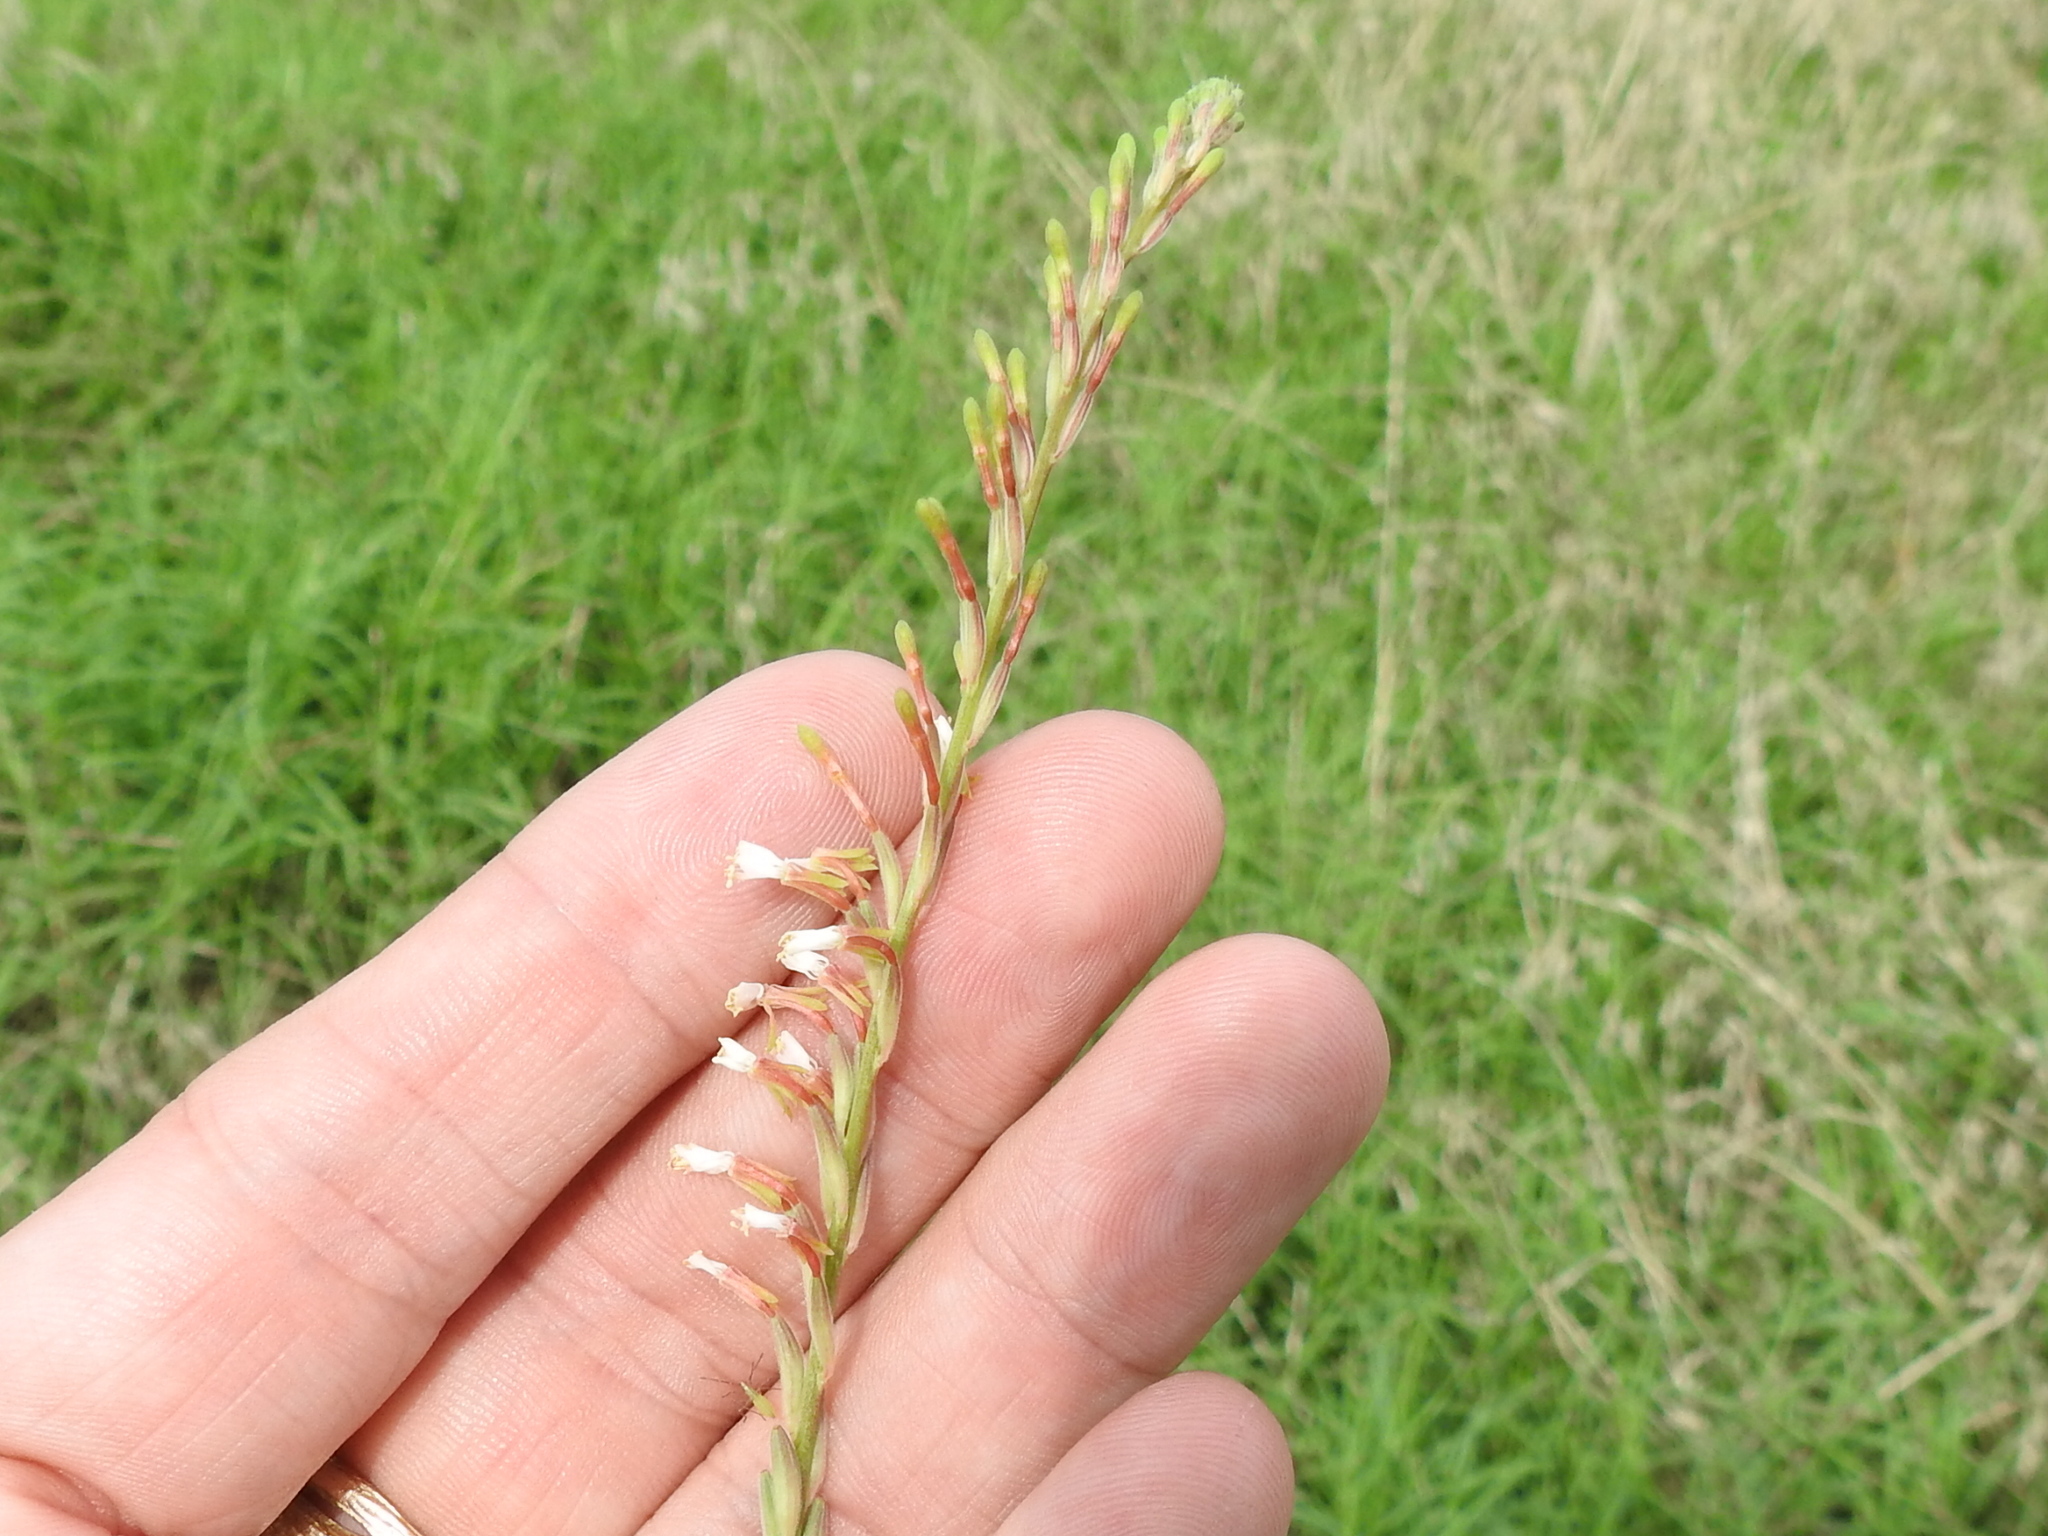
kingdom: Plantae
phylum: Tracheophyta
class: Magnoliopsida
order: Myrtales
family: Onagraceae
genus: Oenothera
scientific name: Oenothera curtiflora
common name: Velvetweed
